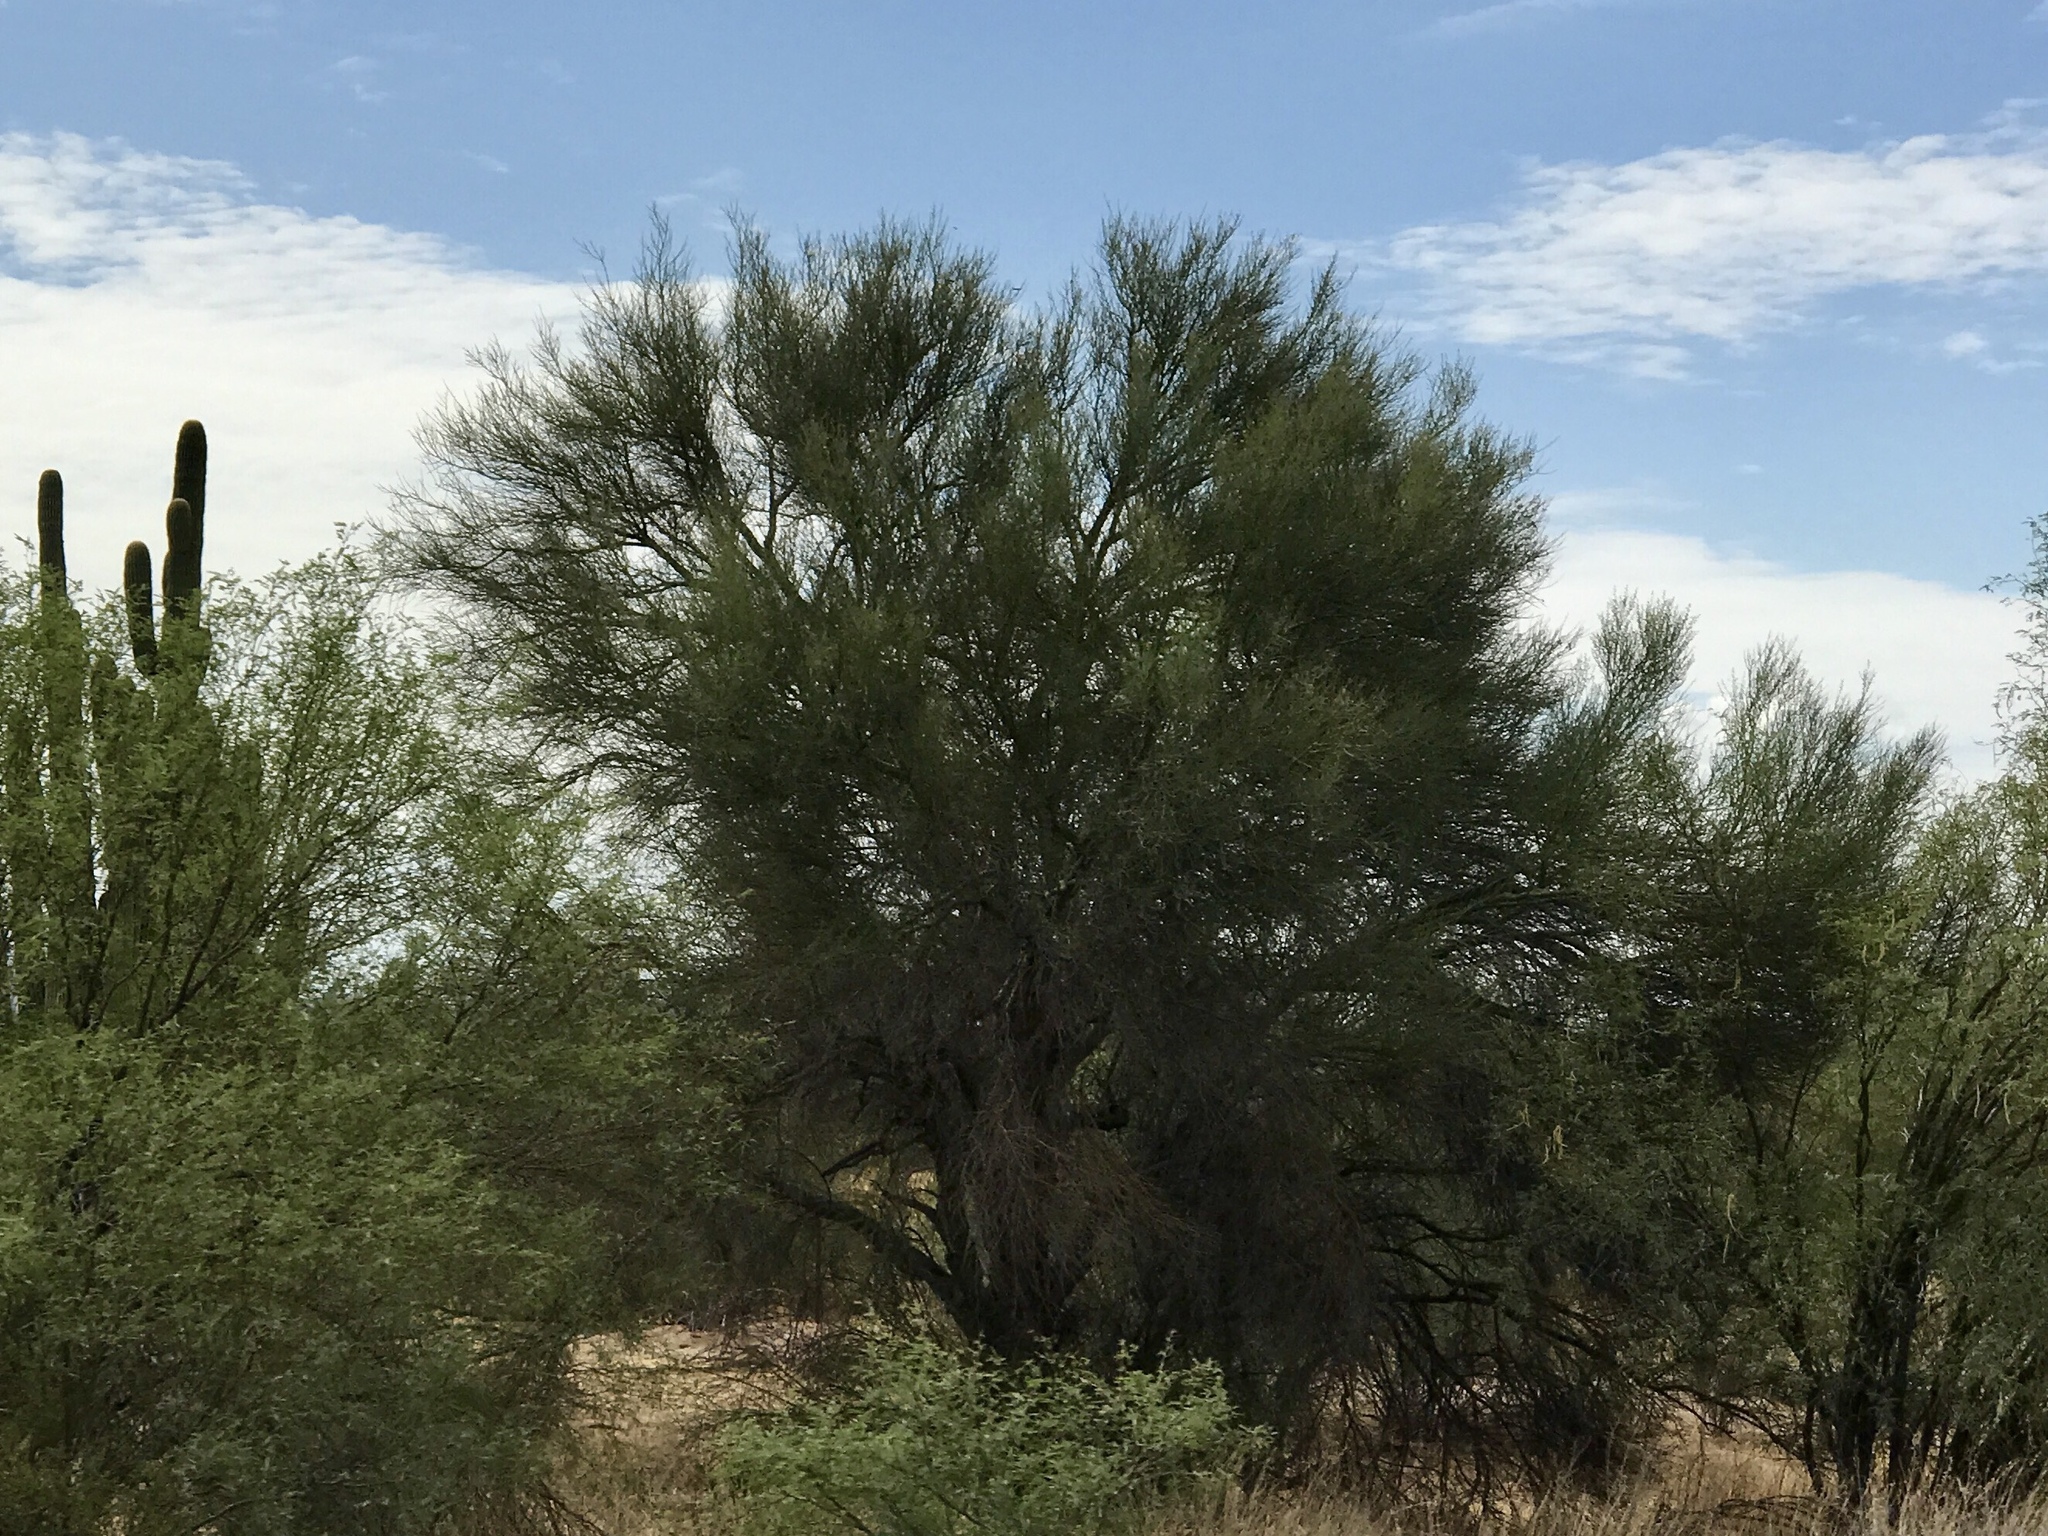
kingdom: Plantae
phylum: Tracheophyta
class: Magnoliopsida
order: Fabales
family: Fabaceae
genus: Parkinsonia
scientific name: Parkinsonia florida
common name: Blue paloverde
